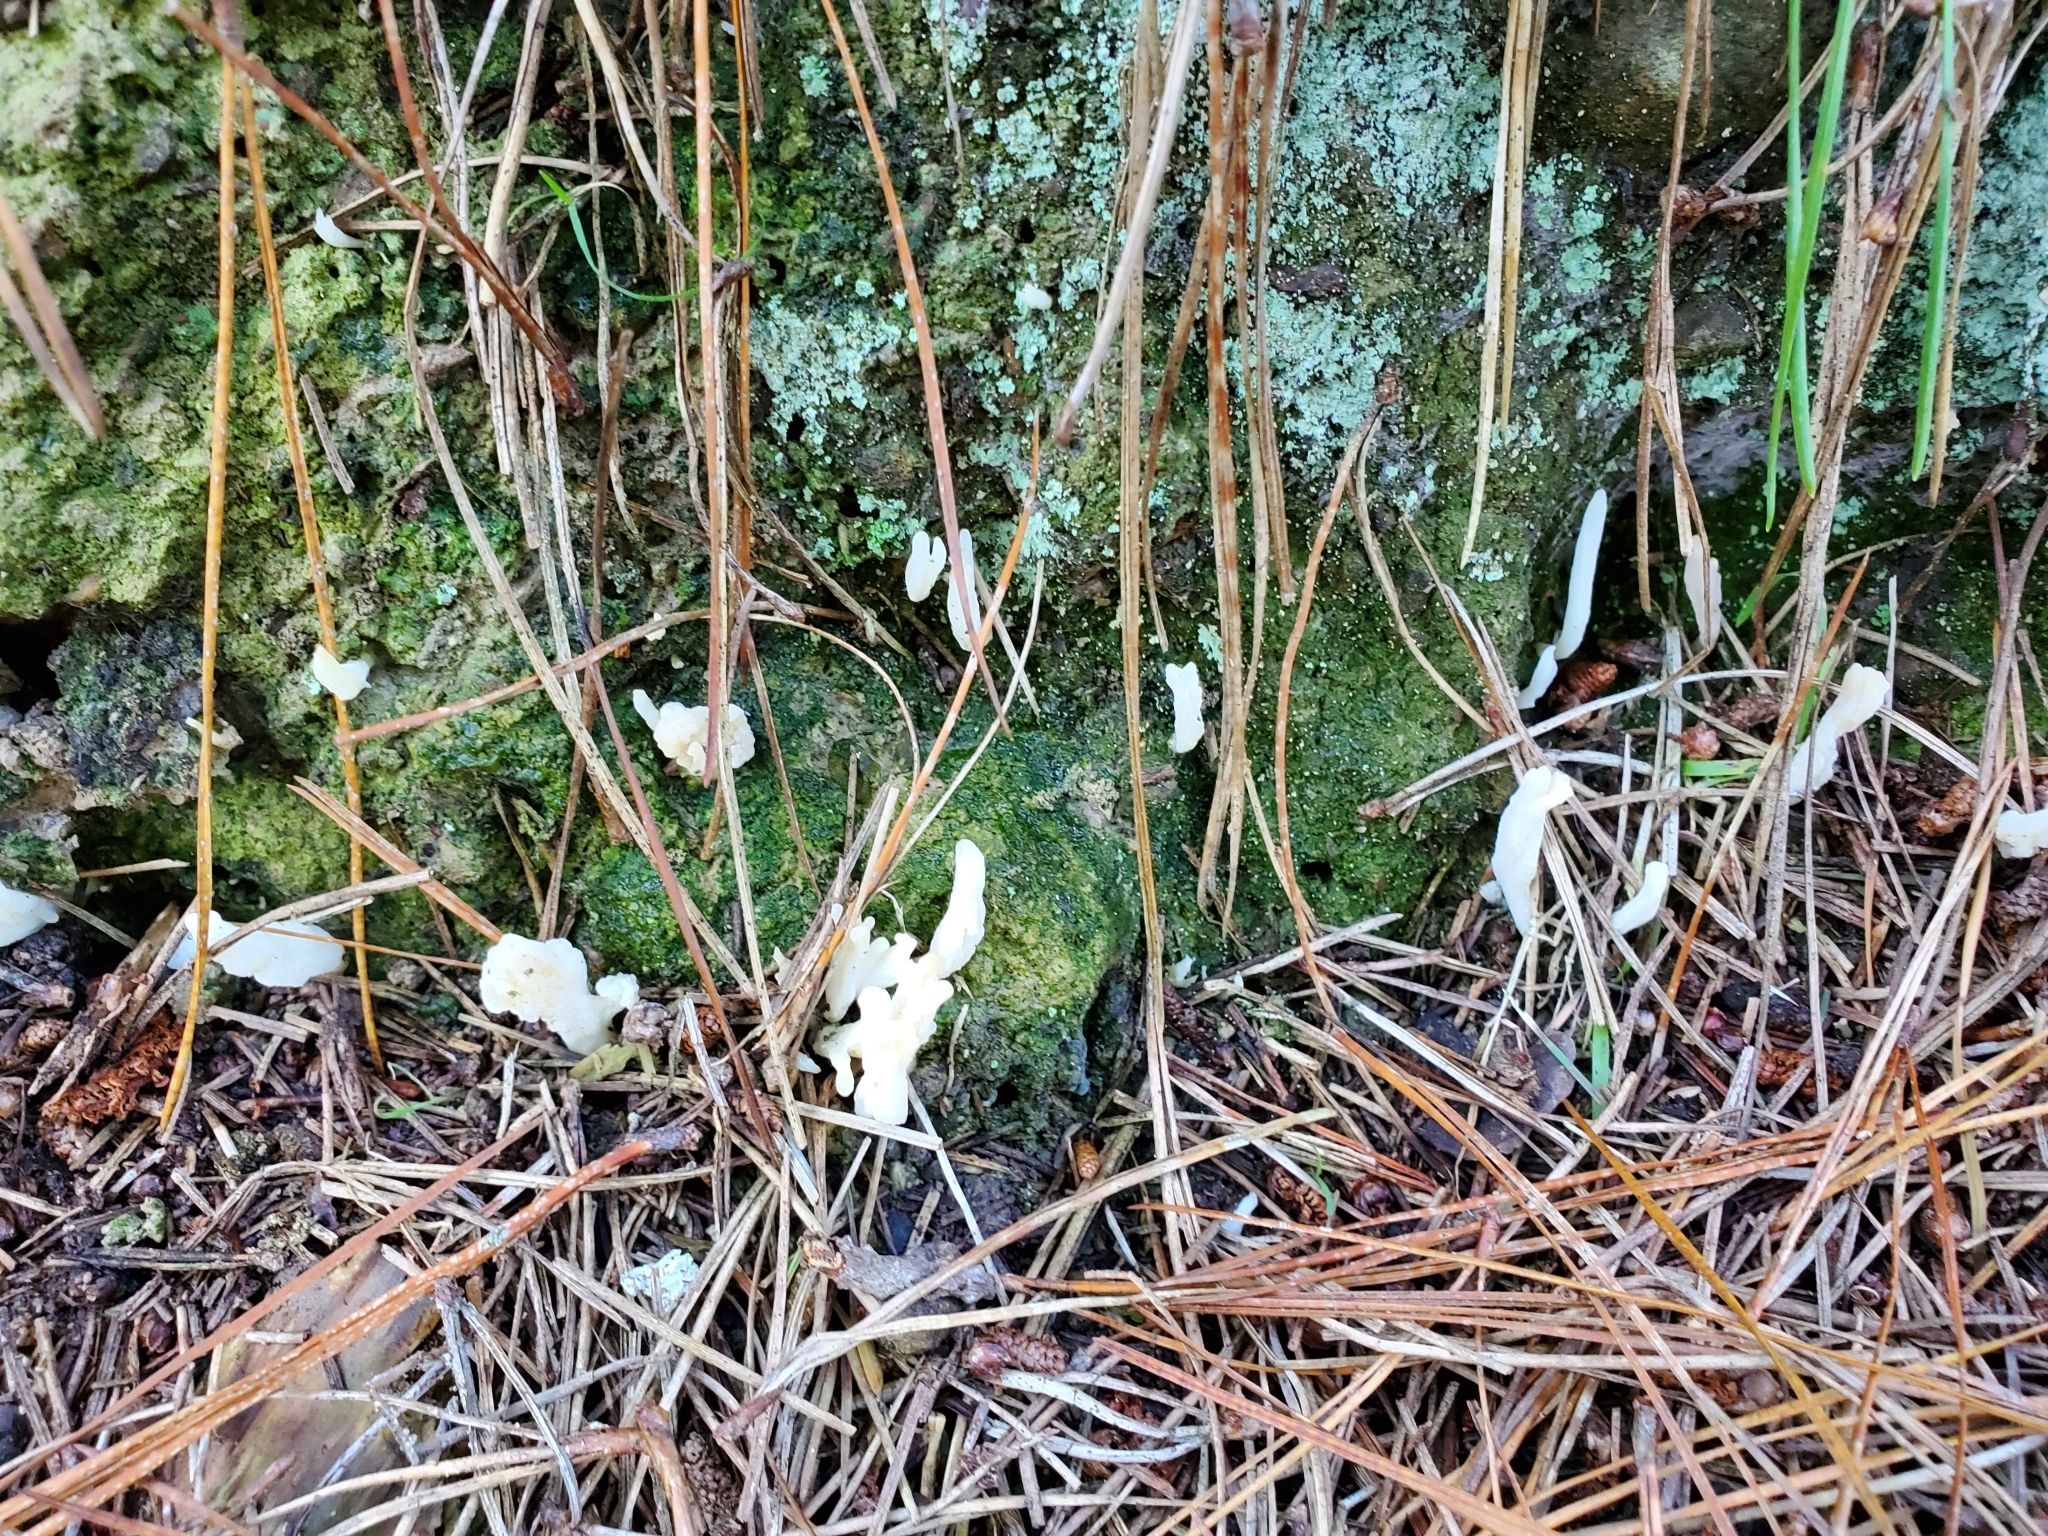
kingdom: Fungi
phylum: Basidiomycota
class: Agaricomycetes
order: Cantharellales
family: Hydnaceae
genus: Clavulina
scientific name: Clavulina rugosa
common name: Wrinkled club
